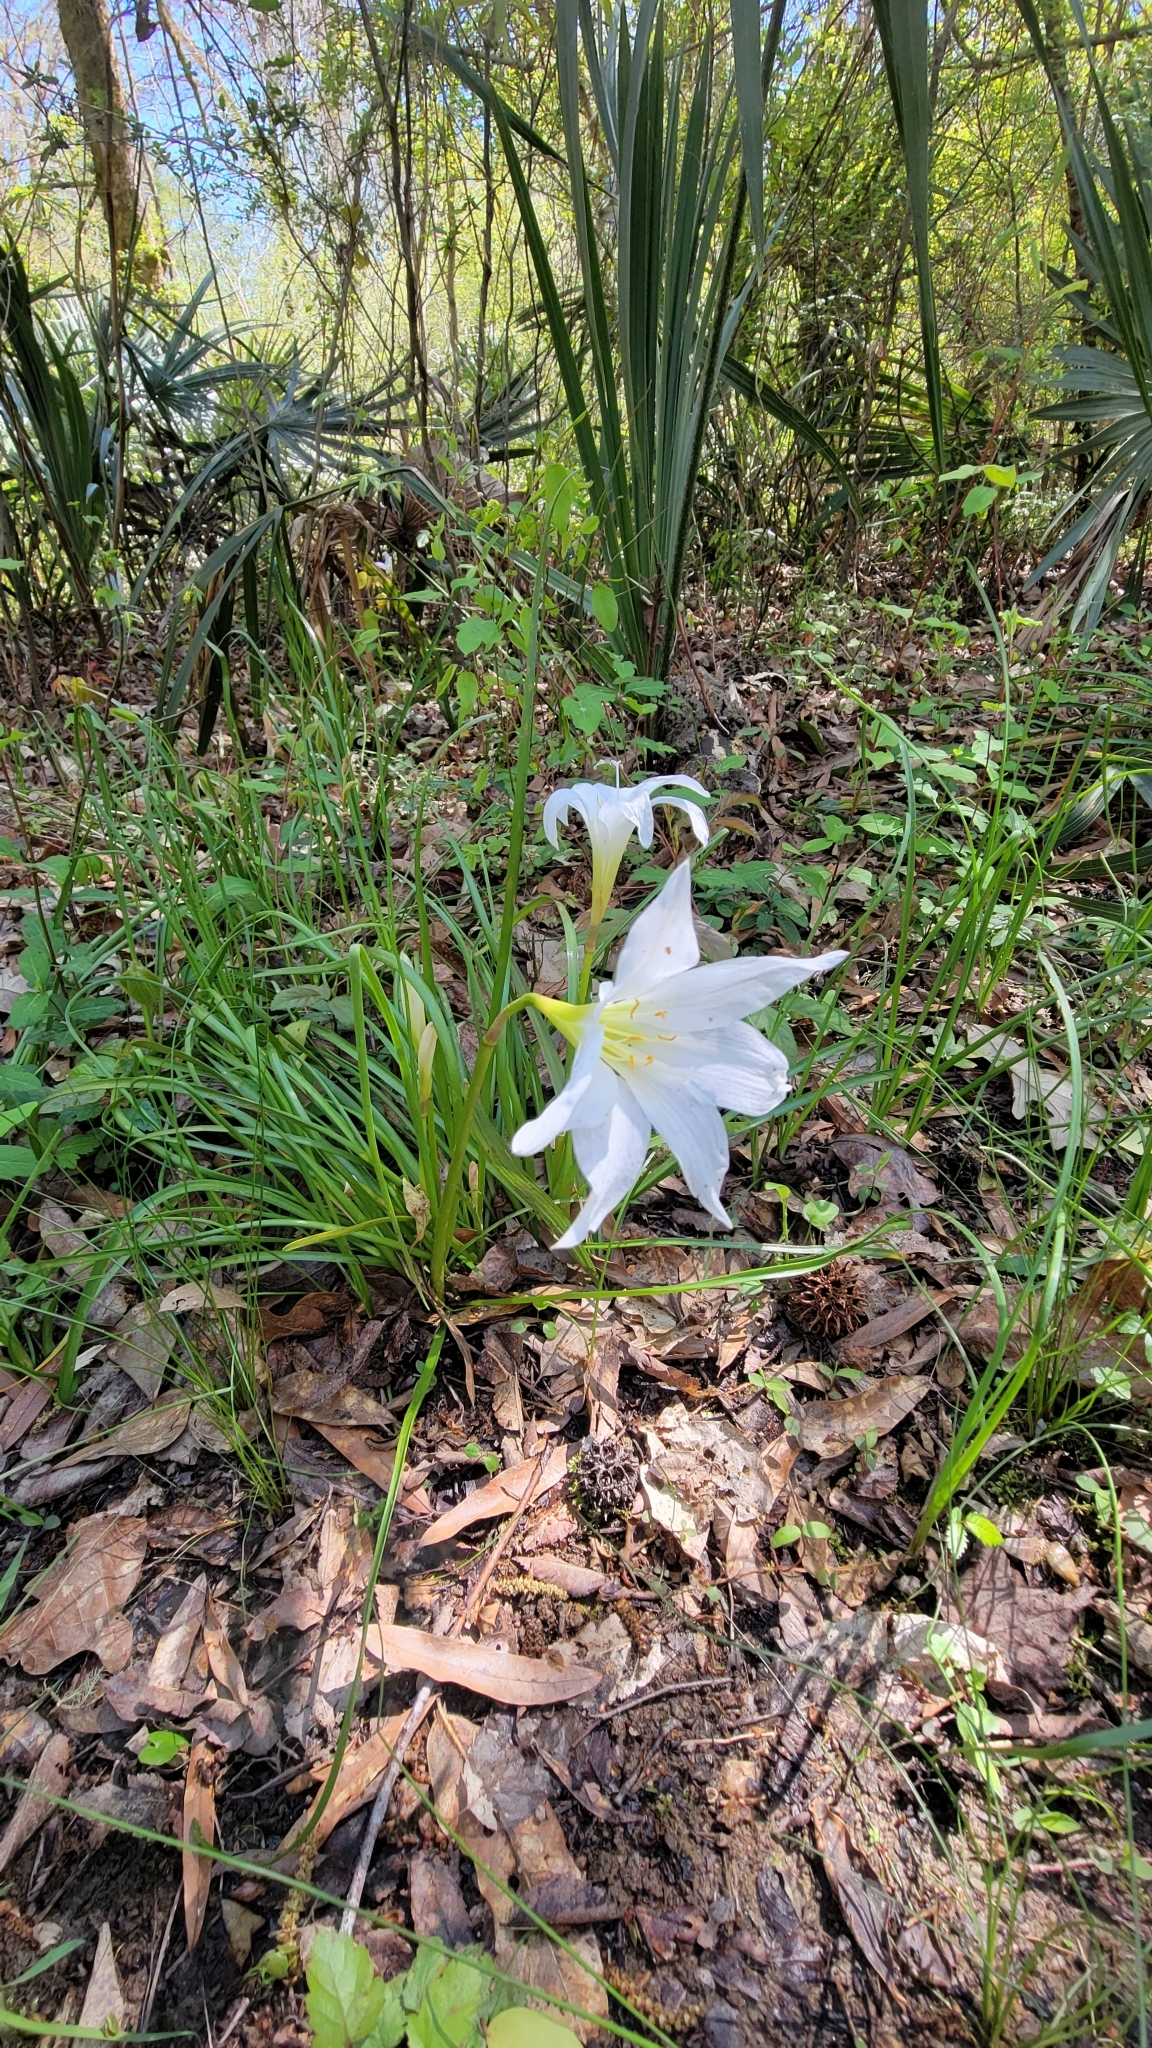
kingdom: Plantae
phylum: Tracheophyta
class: Liliopsida
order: Asparagales
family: Amaryllidaceae
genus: Zephyranthes
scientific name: Zephyranthes atamasco
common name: Atamasco lily
